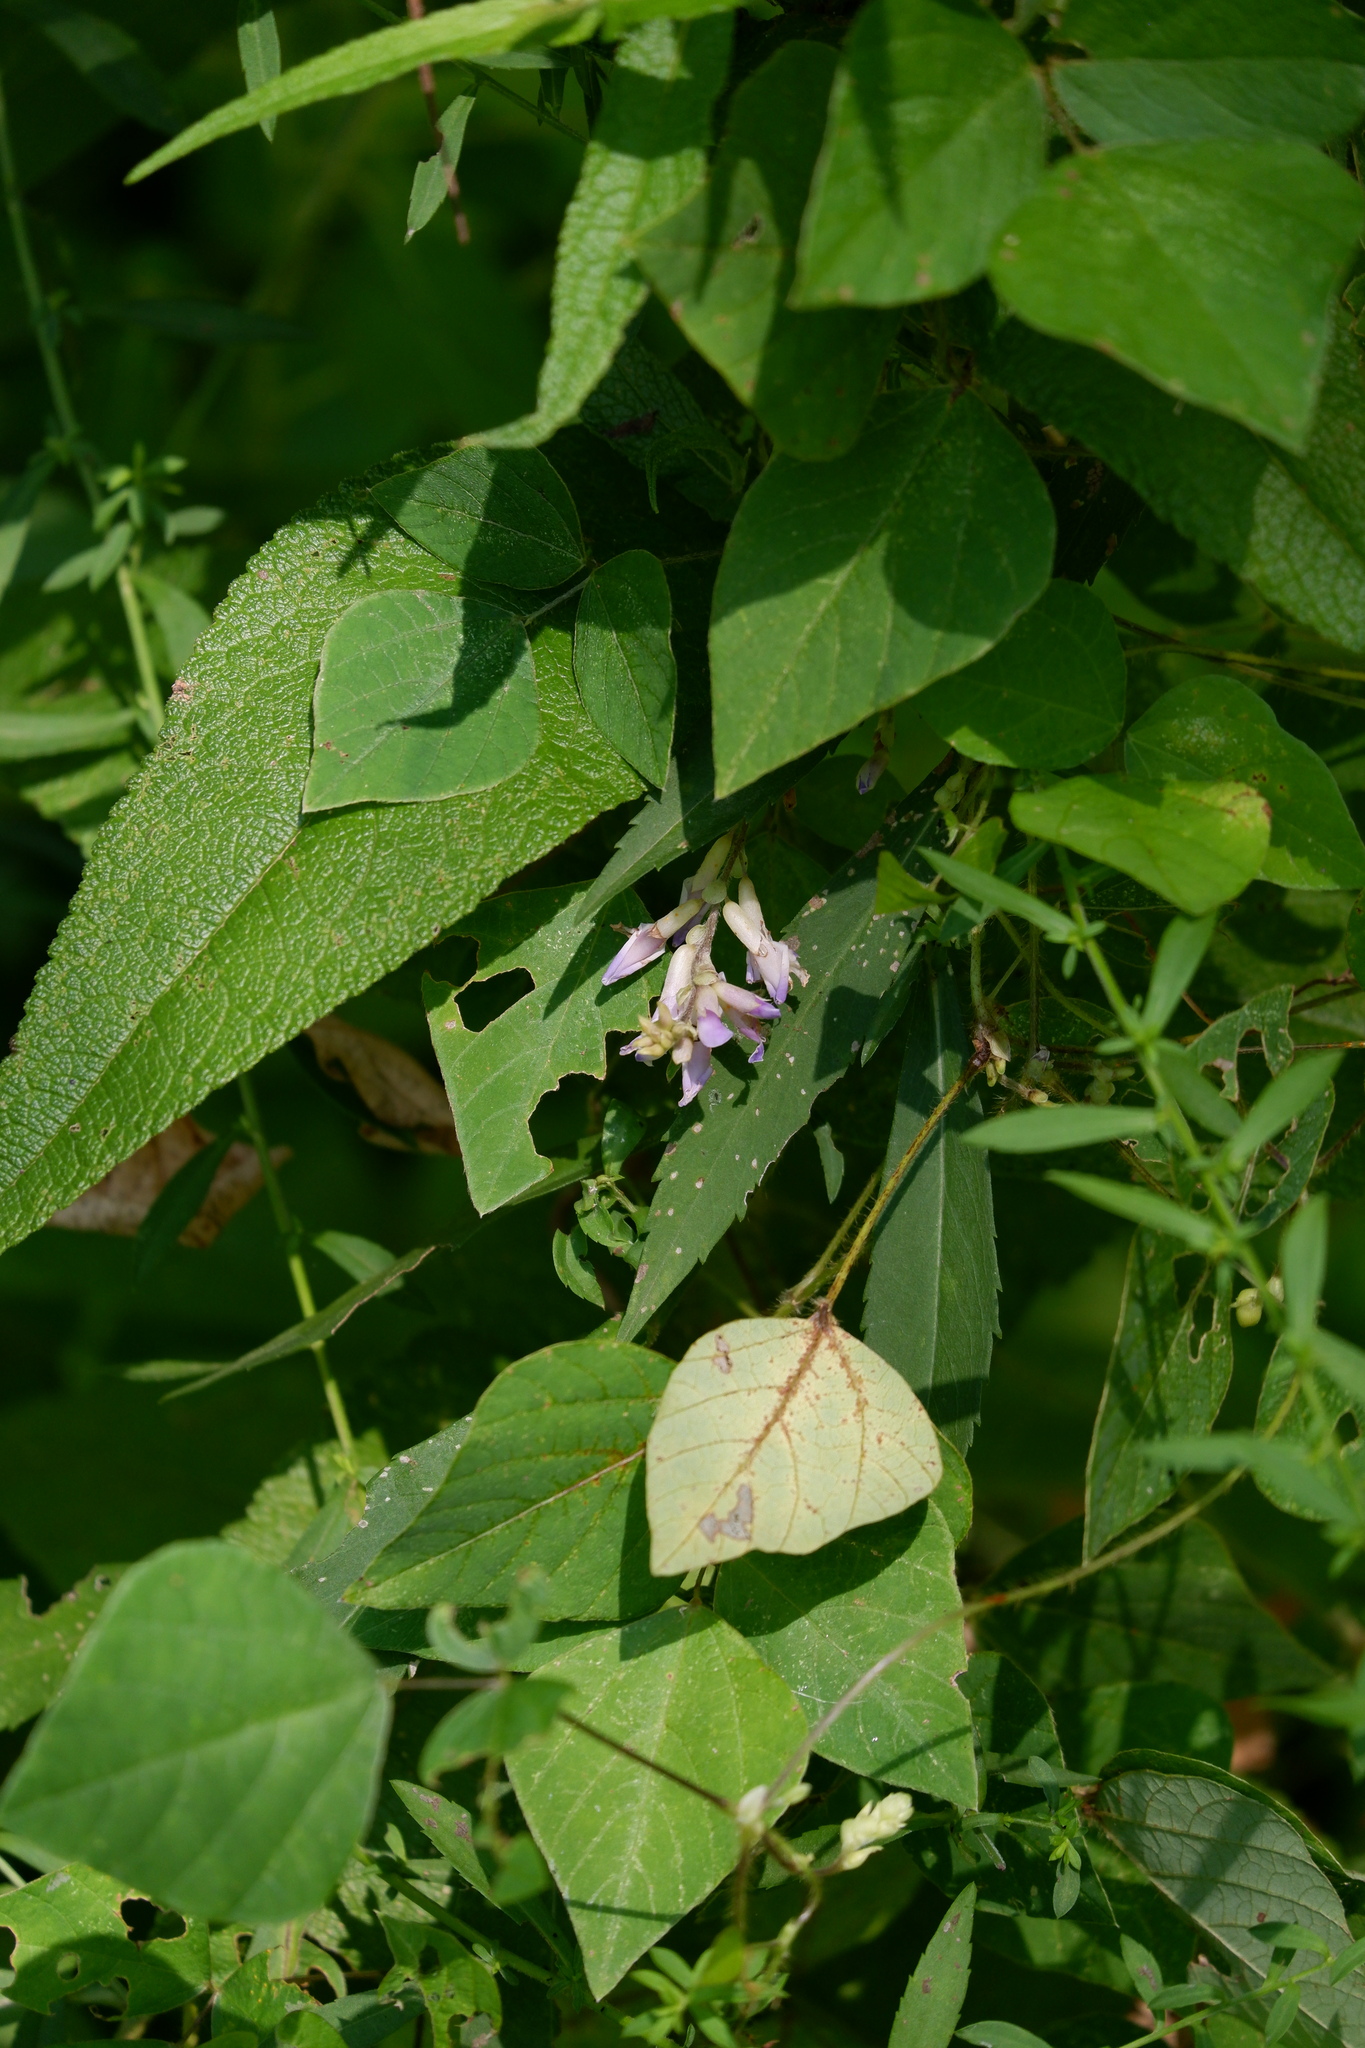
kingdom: Plantae
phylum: Tracheophyta
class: Magnoliopsida
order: Fabales
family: Fabaceae
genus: Amphicarpaea
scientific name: Amphicarpaea bracteata
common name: American hog peanut
